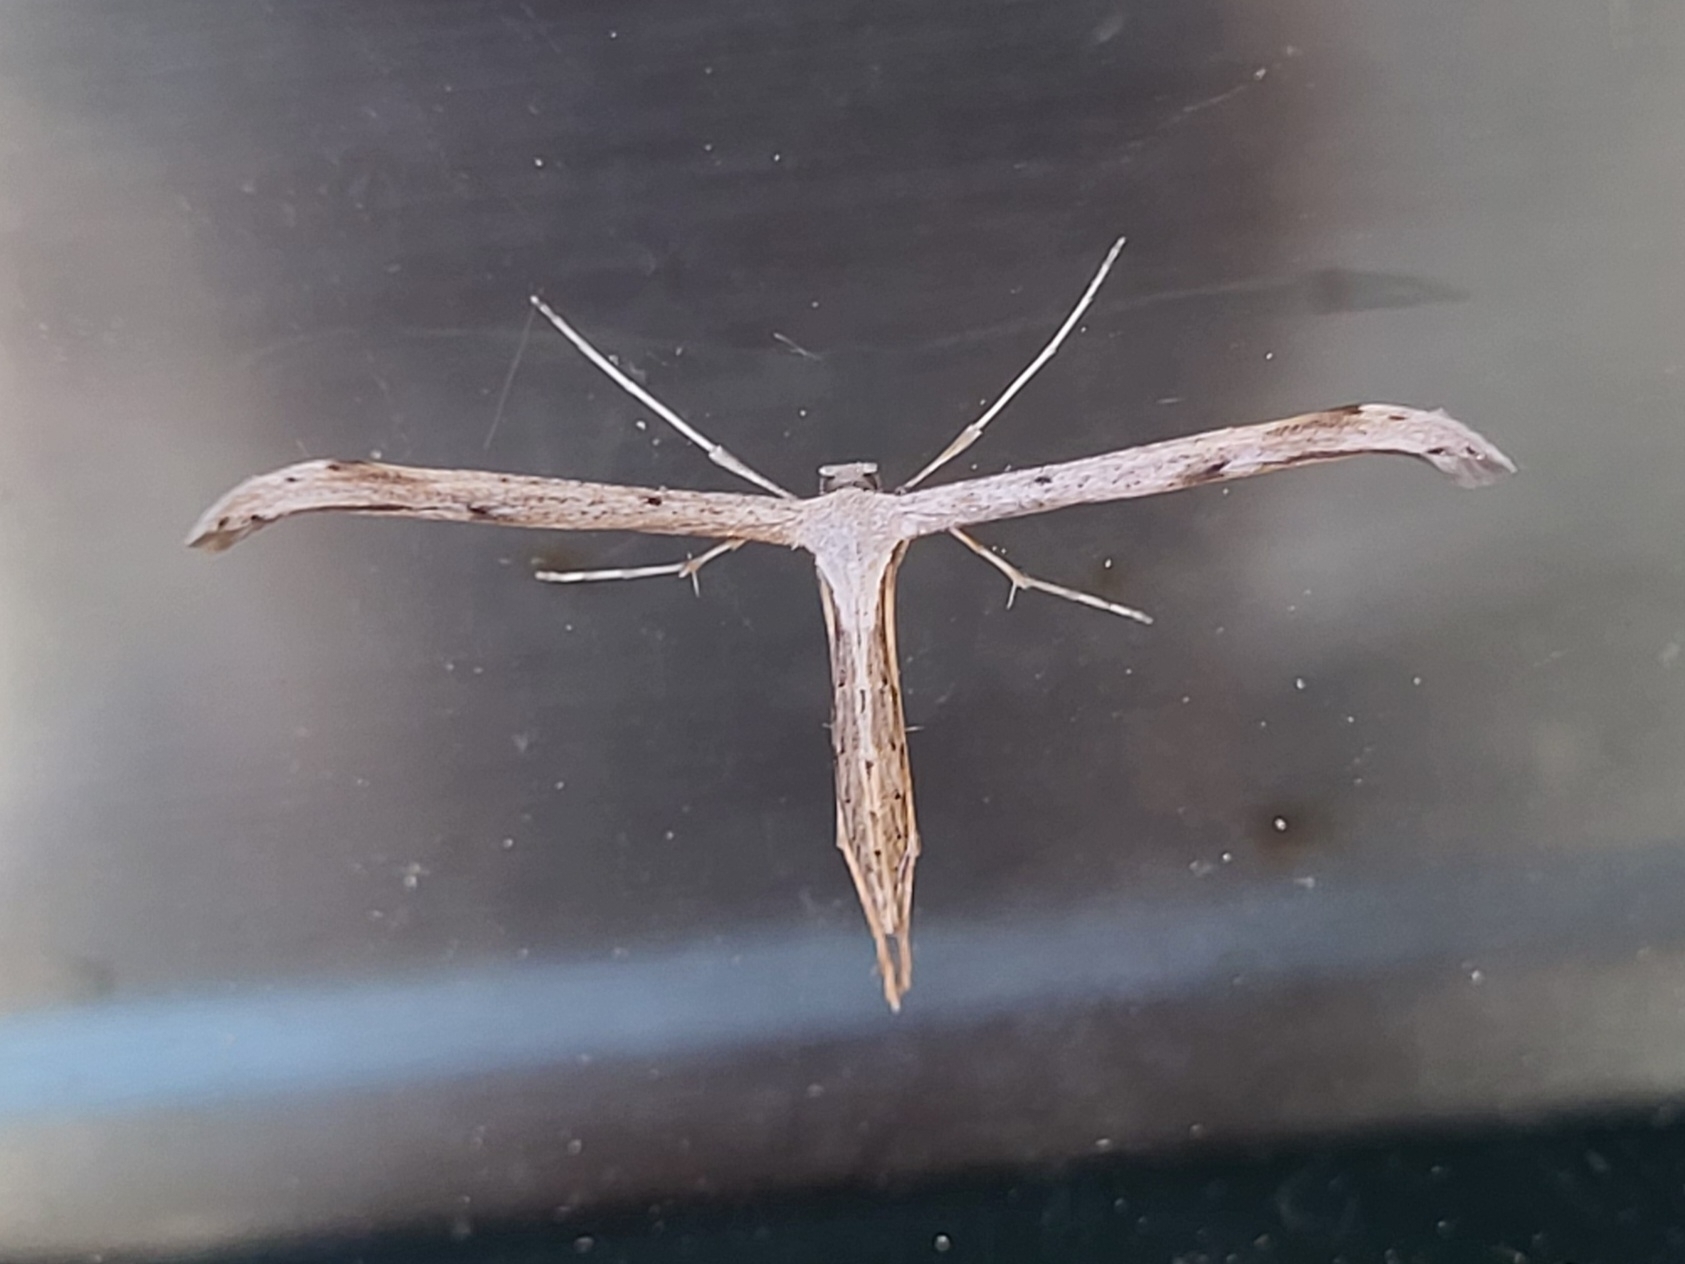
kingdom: Animalia
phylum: Arthropoda
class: Insecta
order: Lepidoptera
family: Pterophoridae
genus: Emmelina
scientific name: Emmelina monodactyla
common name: Common plume
